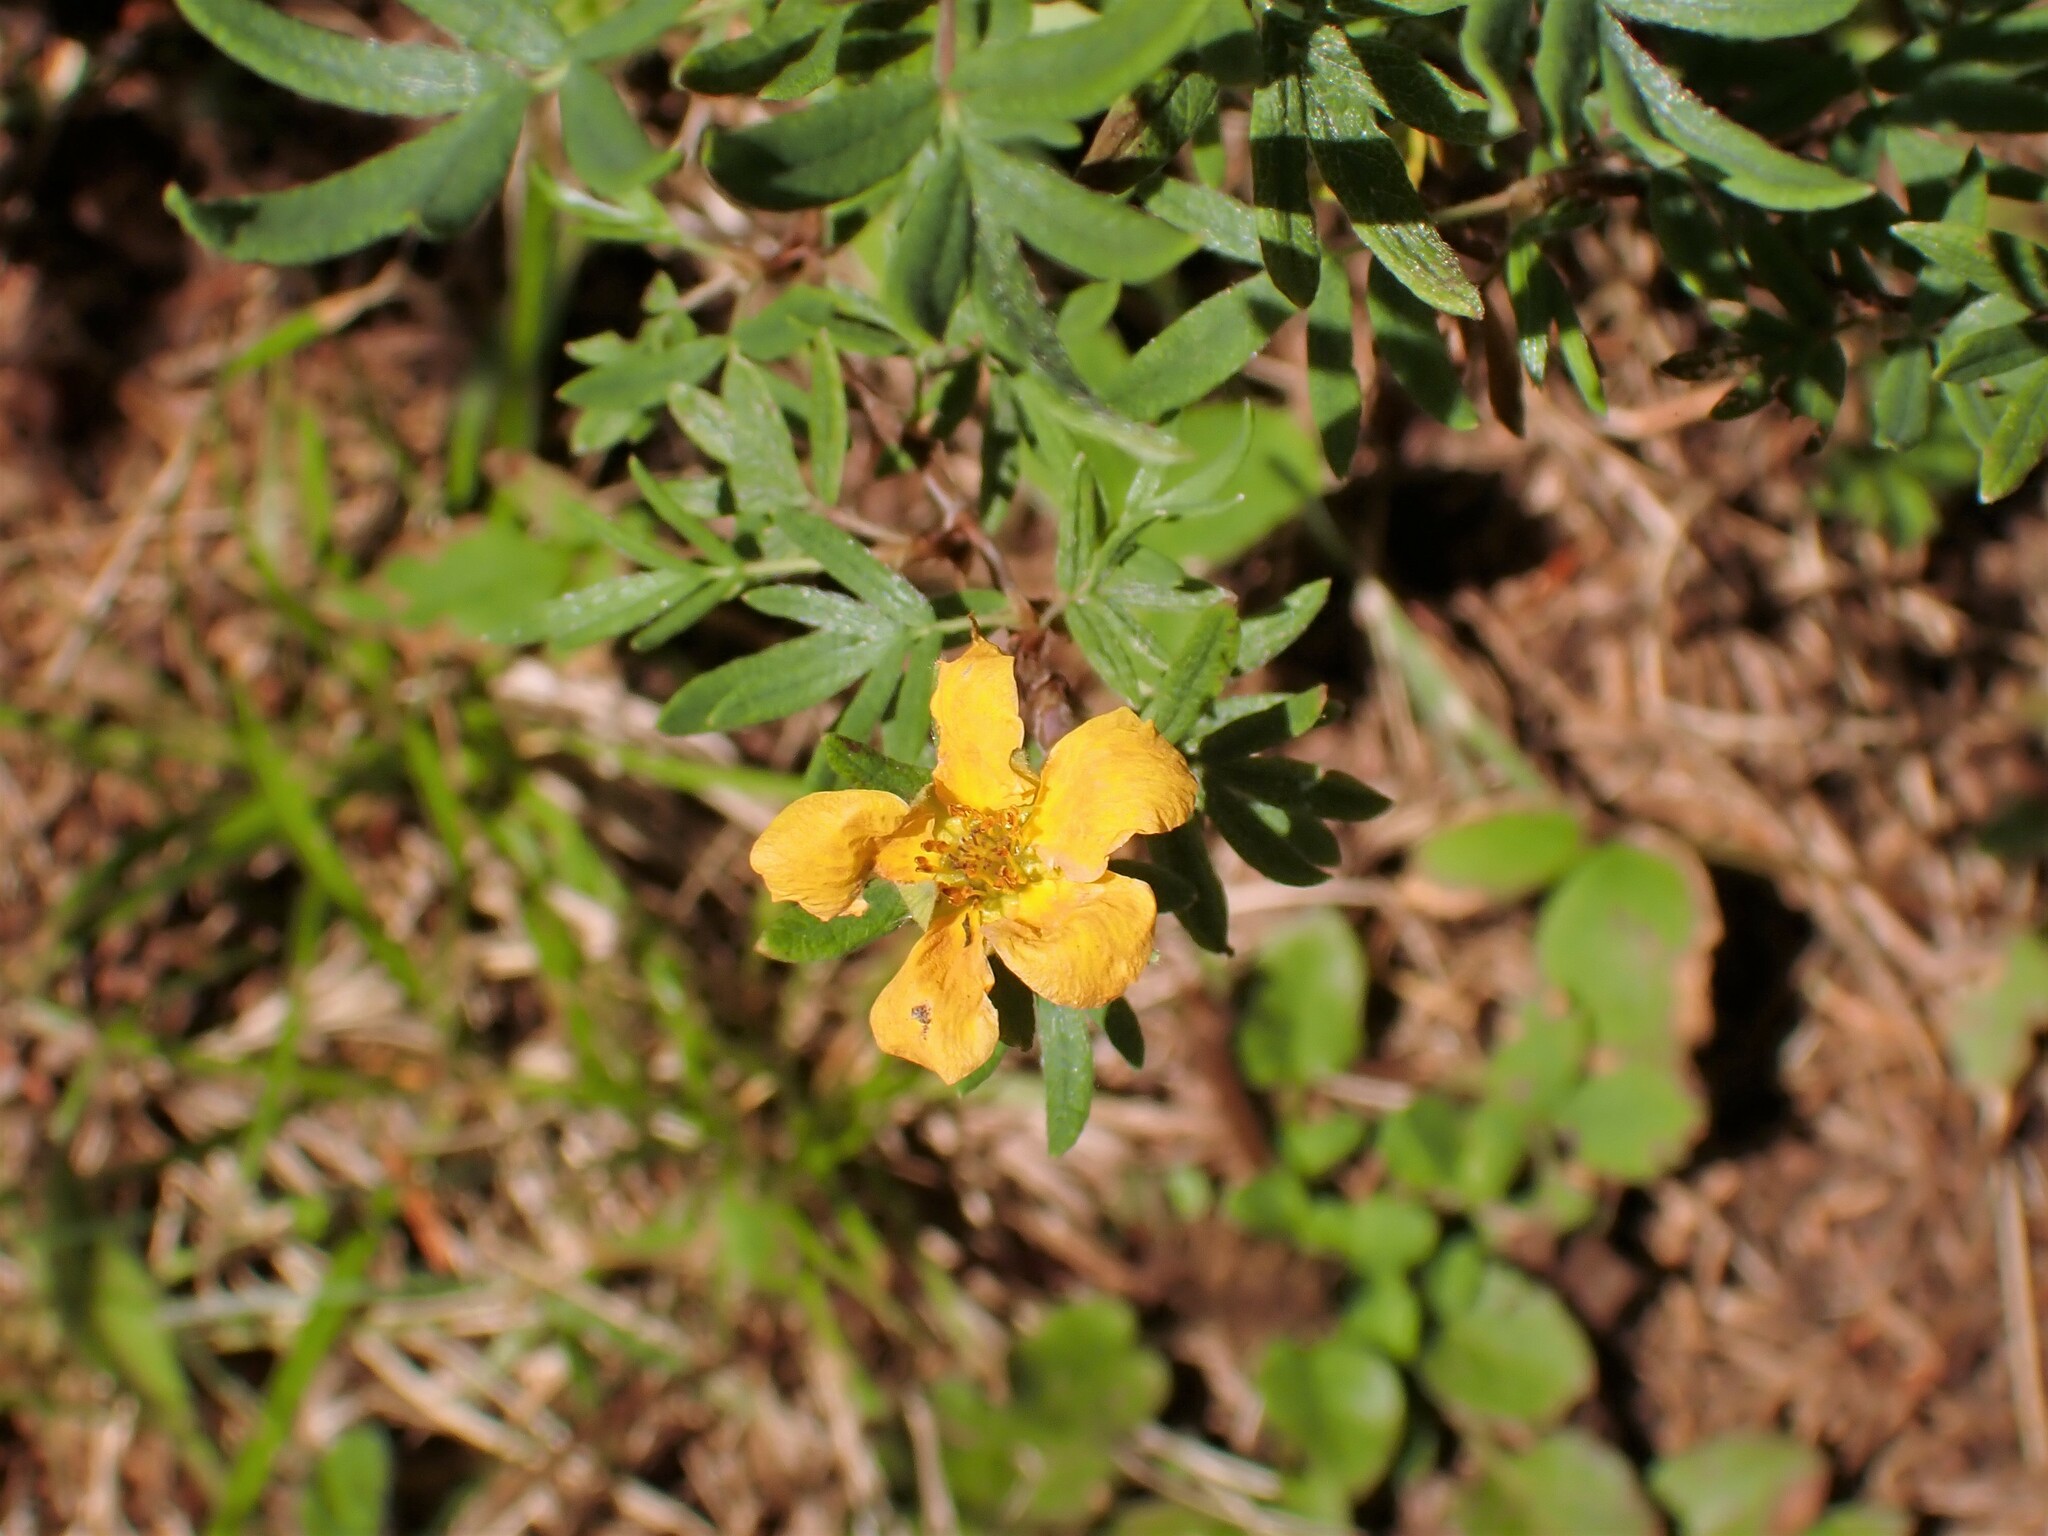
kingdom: Plantae
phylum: Tracheophyta
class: Magnoliopsida
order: Rosales
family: Rosaceae
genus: Dasiphora
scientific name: Dasiphora fruticosa
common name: Shrubby cinquefoil
